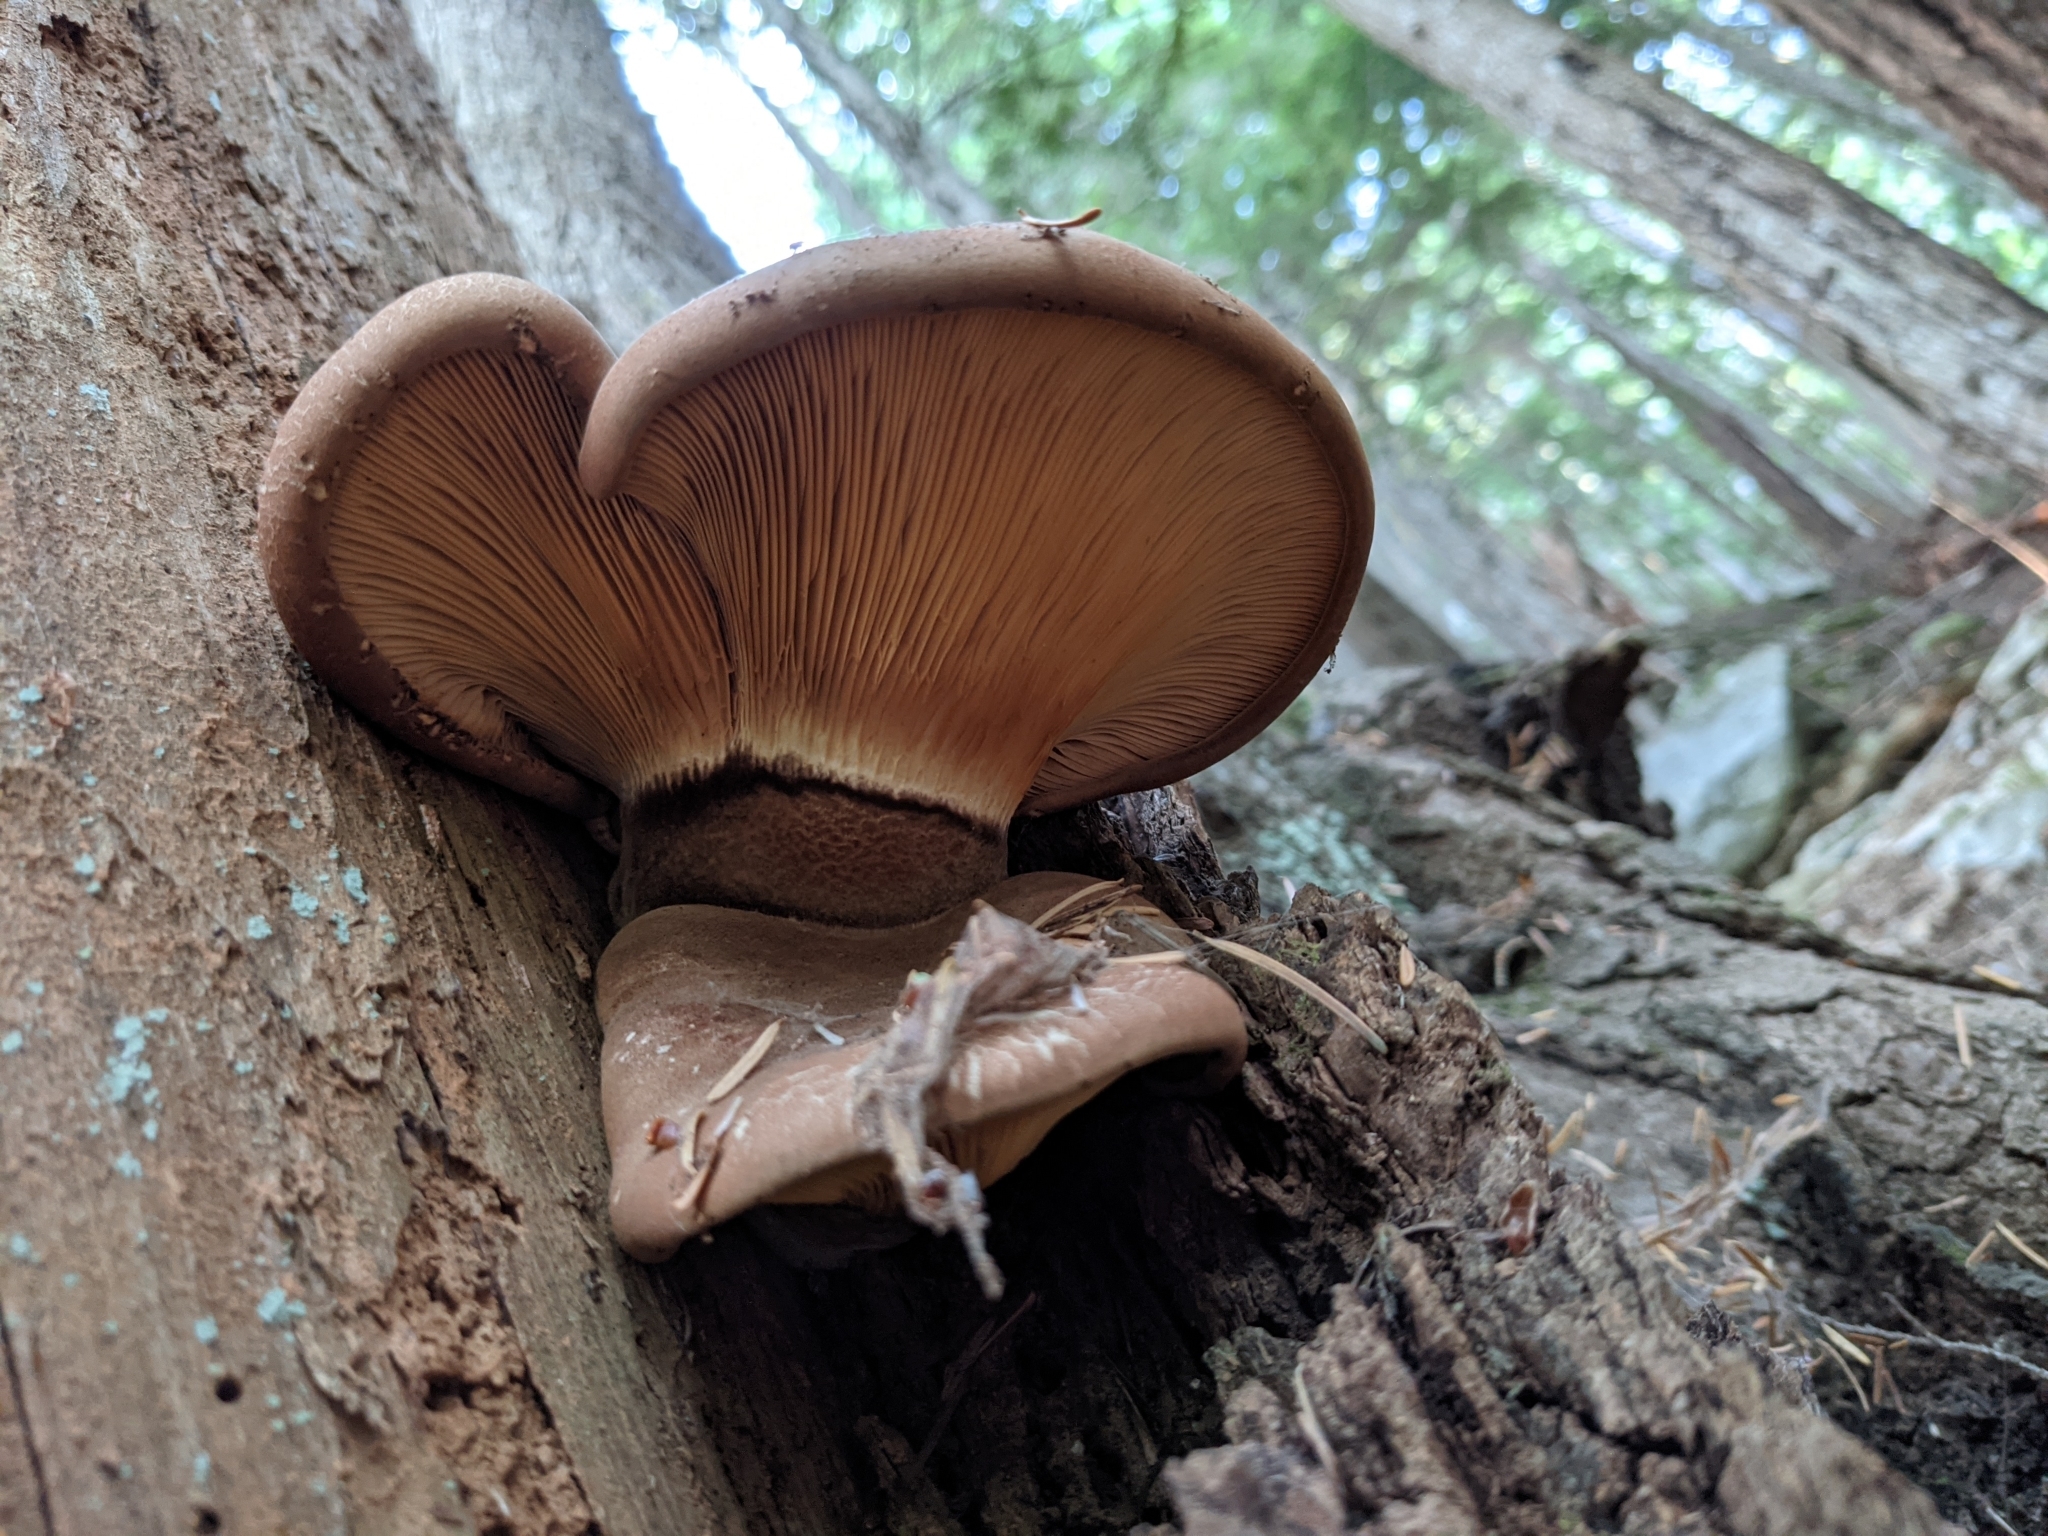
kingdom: Fungi
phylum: Basidiomycota
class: Agaricomycetes
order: Boletales
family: Tapinellaceae
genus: Tapinella
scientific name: Tapinella atrotomentosa
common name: Velvet rollrim
